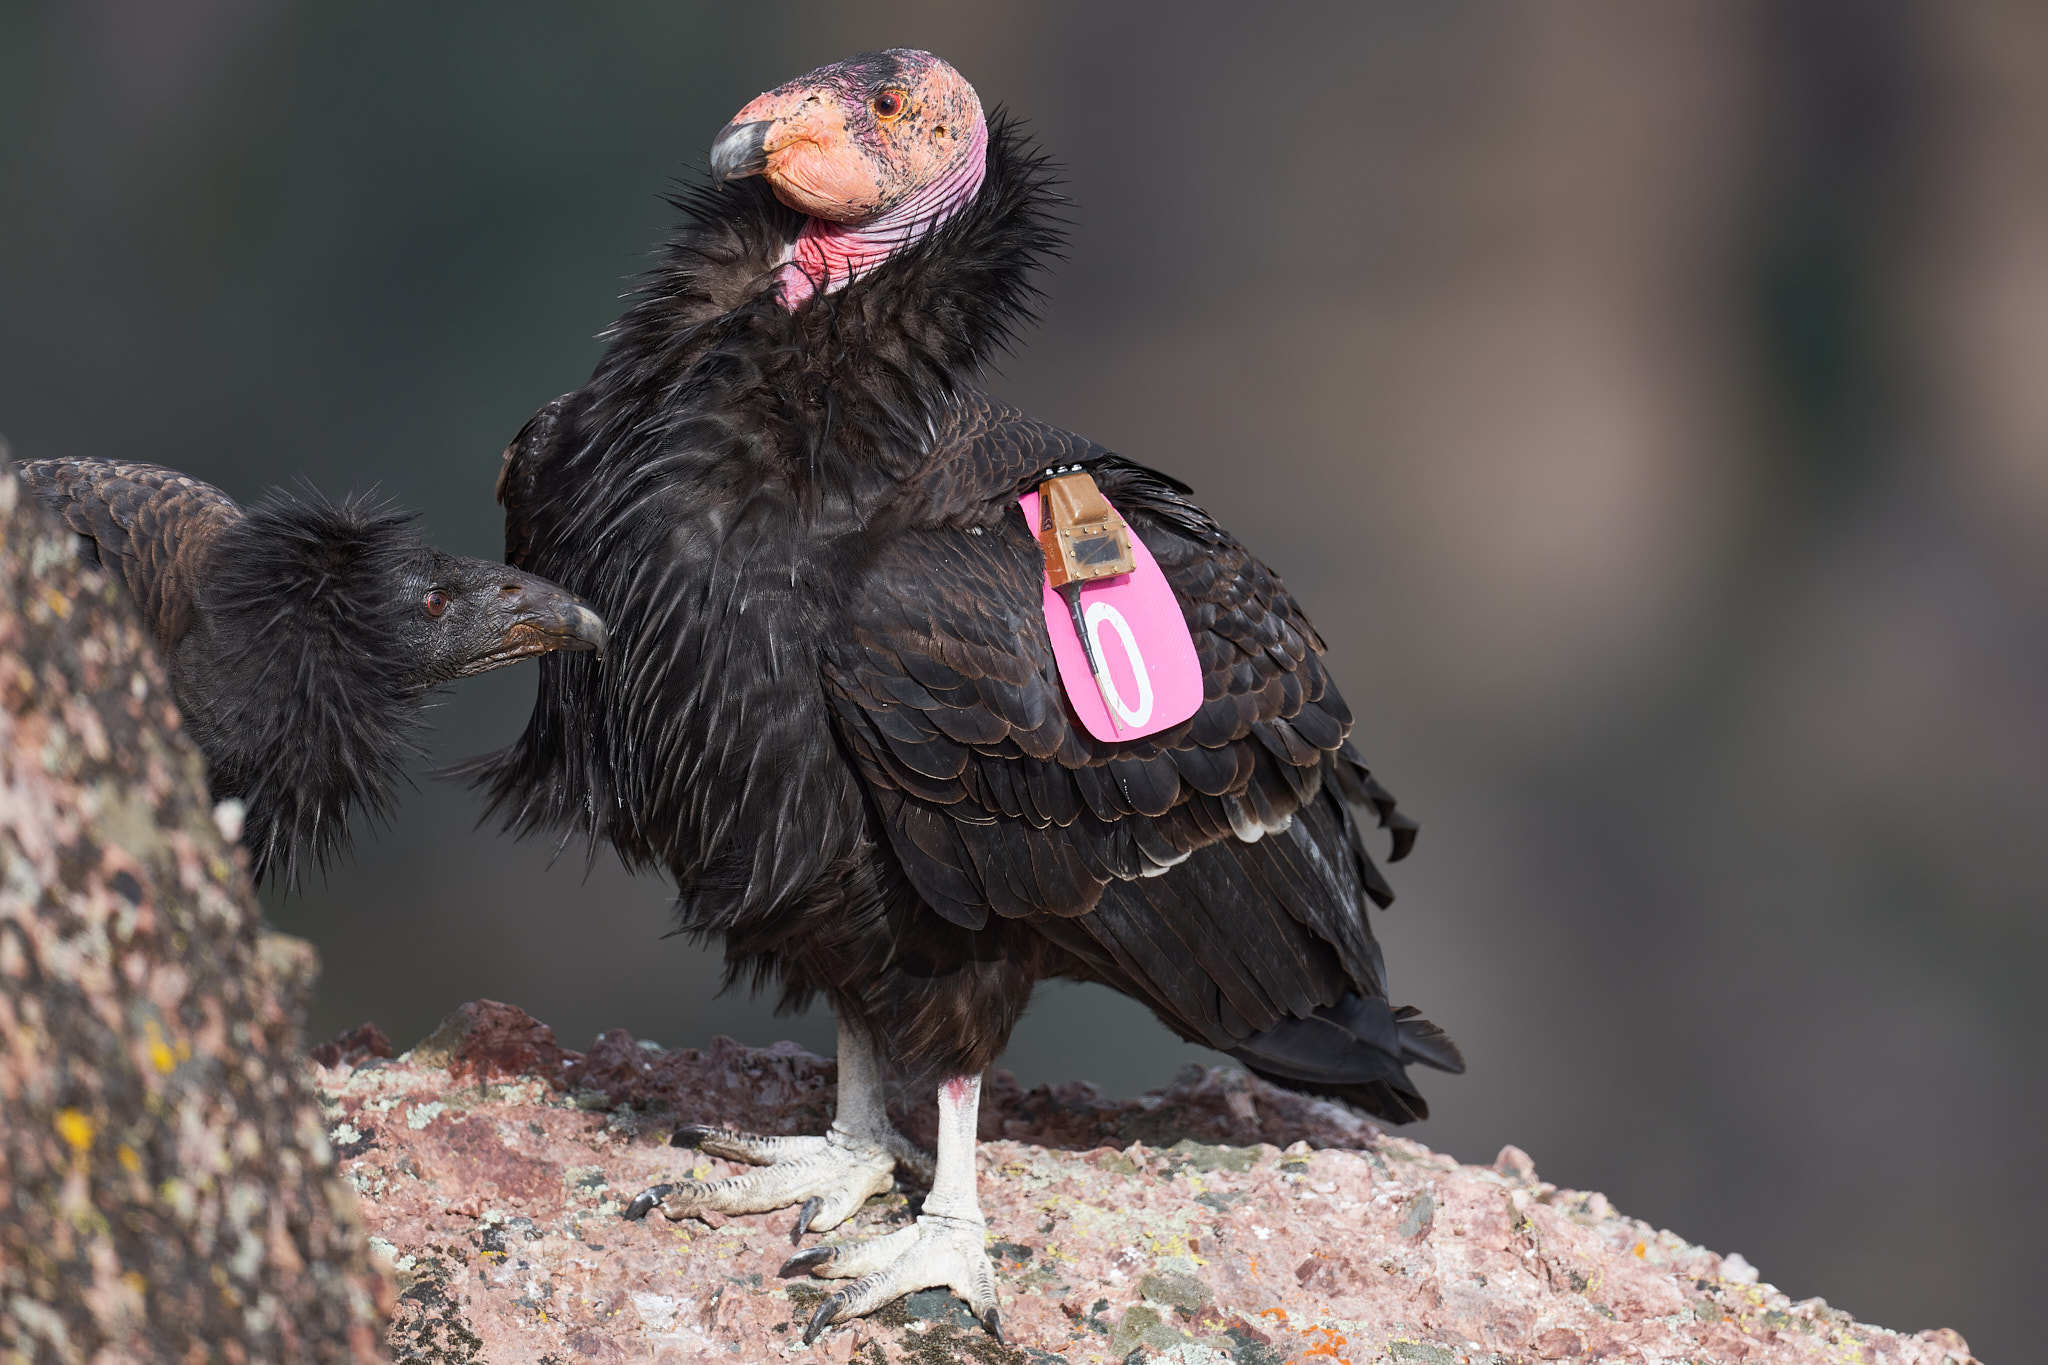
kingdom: Animalia
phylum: Chordata
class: Aves
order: Accipitriformes
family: Cathartidae
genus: Gymnogyps
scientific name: Gymnogyps californianus
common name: California condor
